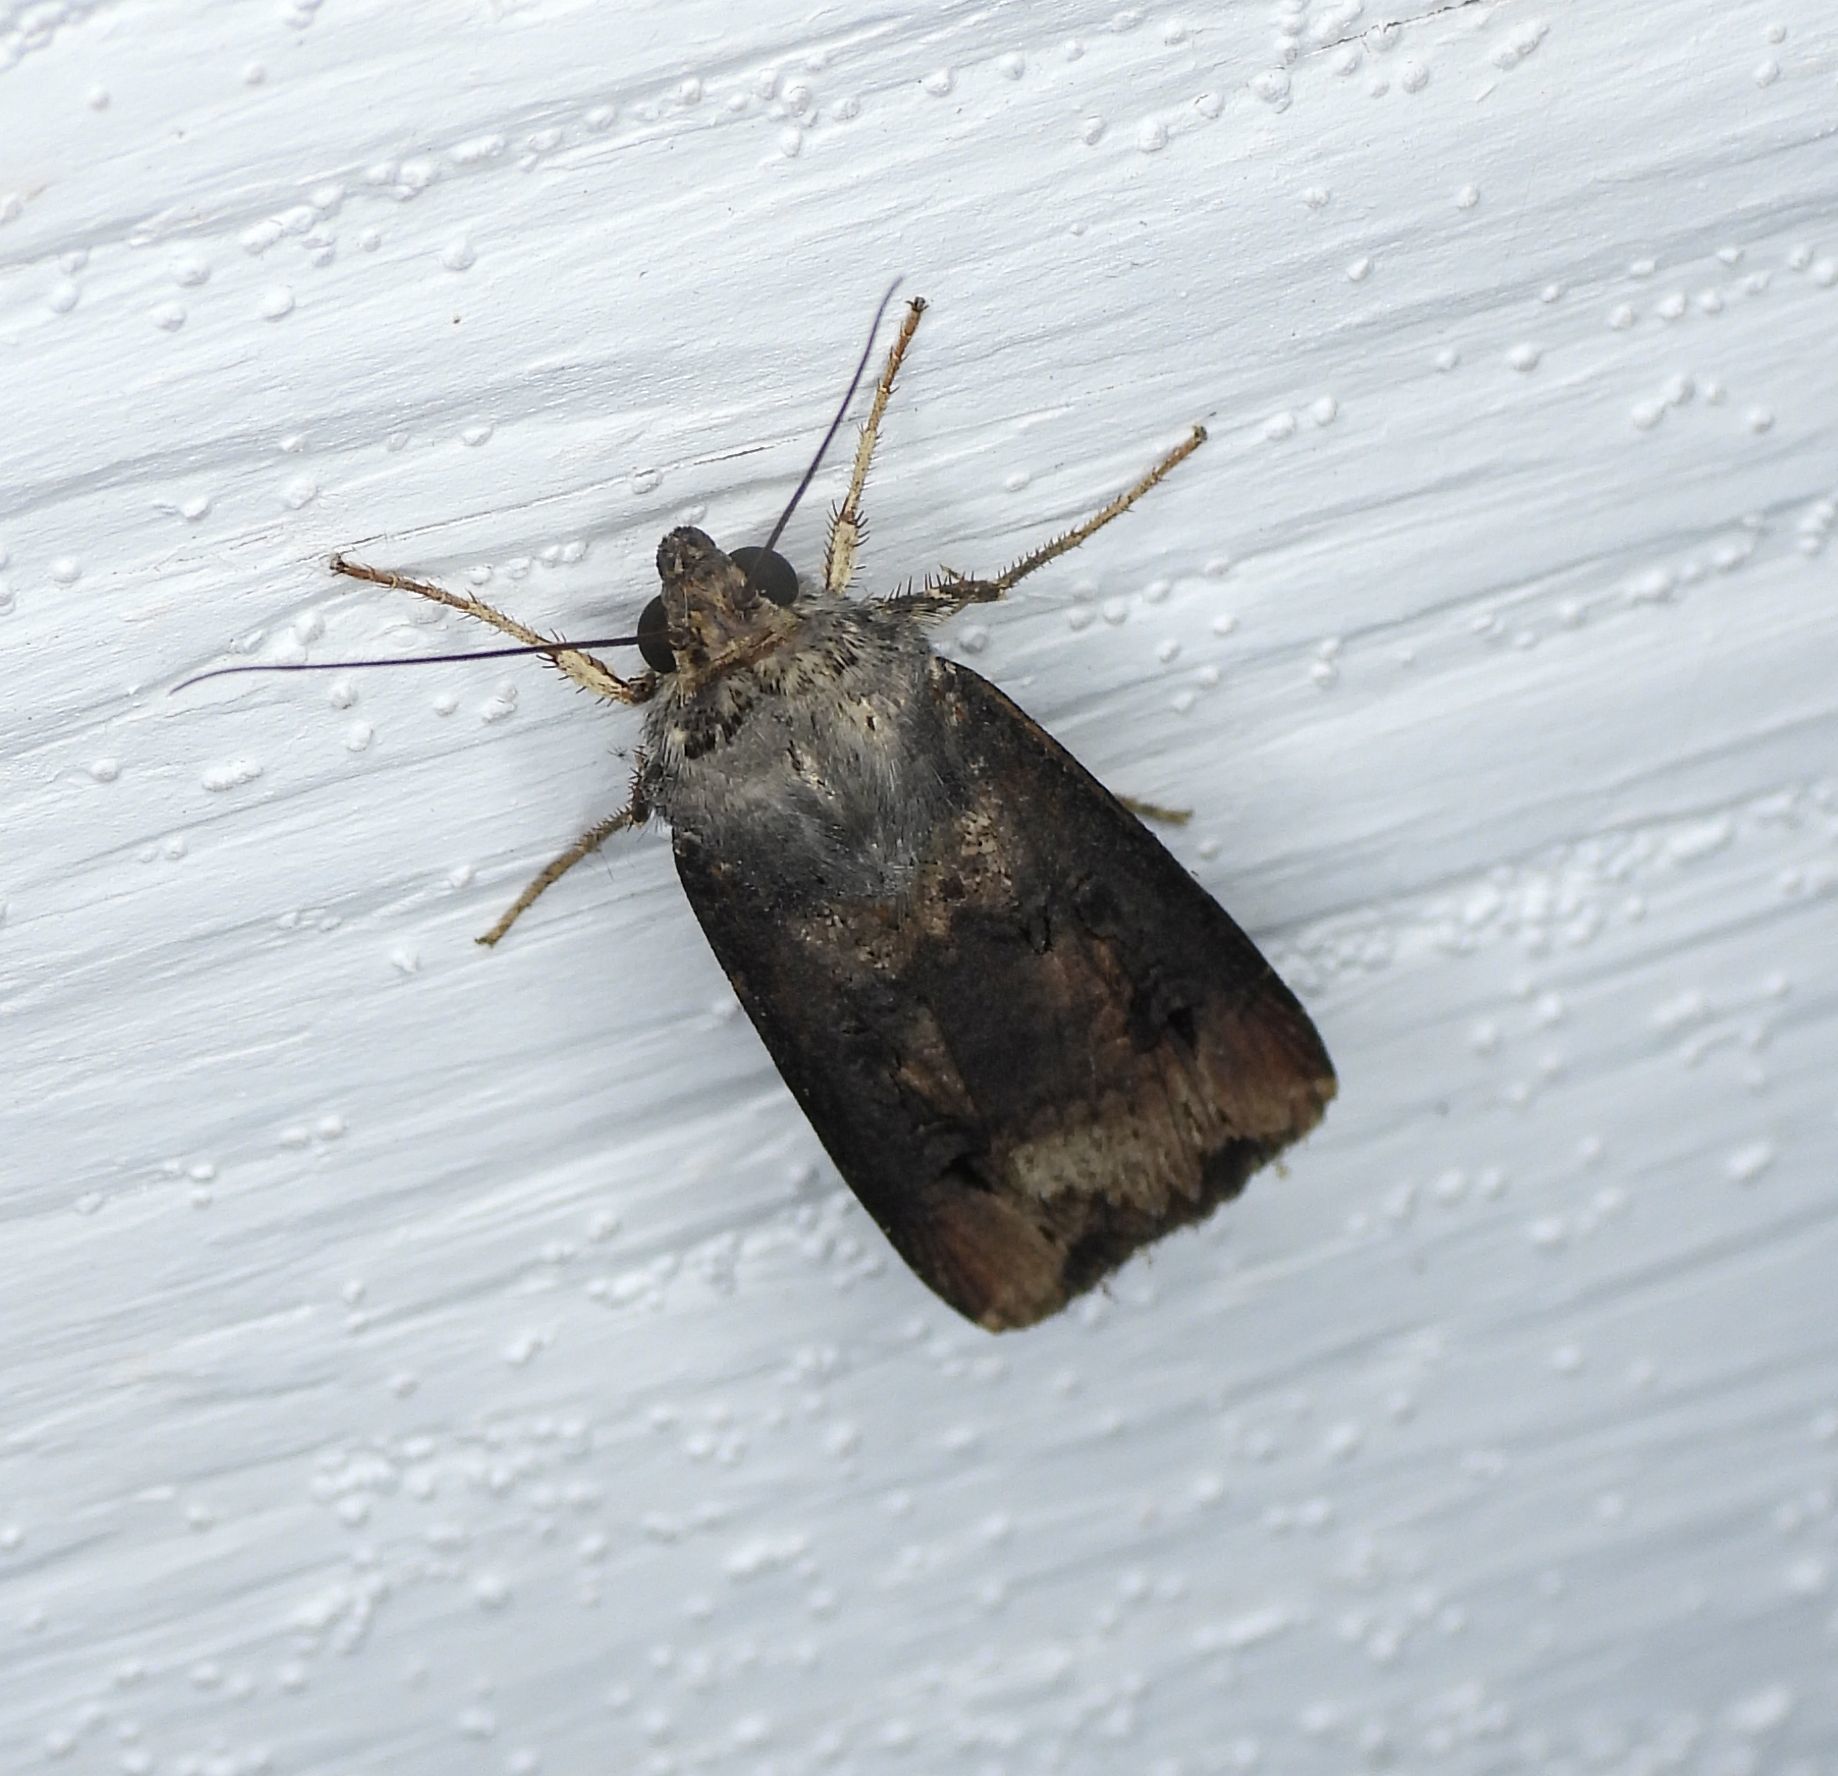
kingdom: Animalia
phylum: Arthropoda
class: Insecta
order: Lepidoptera
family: Noctuidae
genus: Agrotis
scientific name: Agrotis ipsilon
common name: Dark sword-grass
